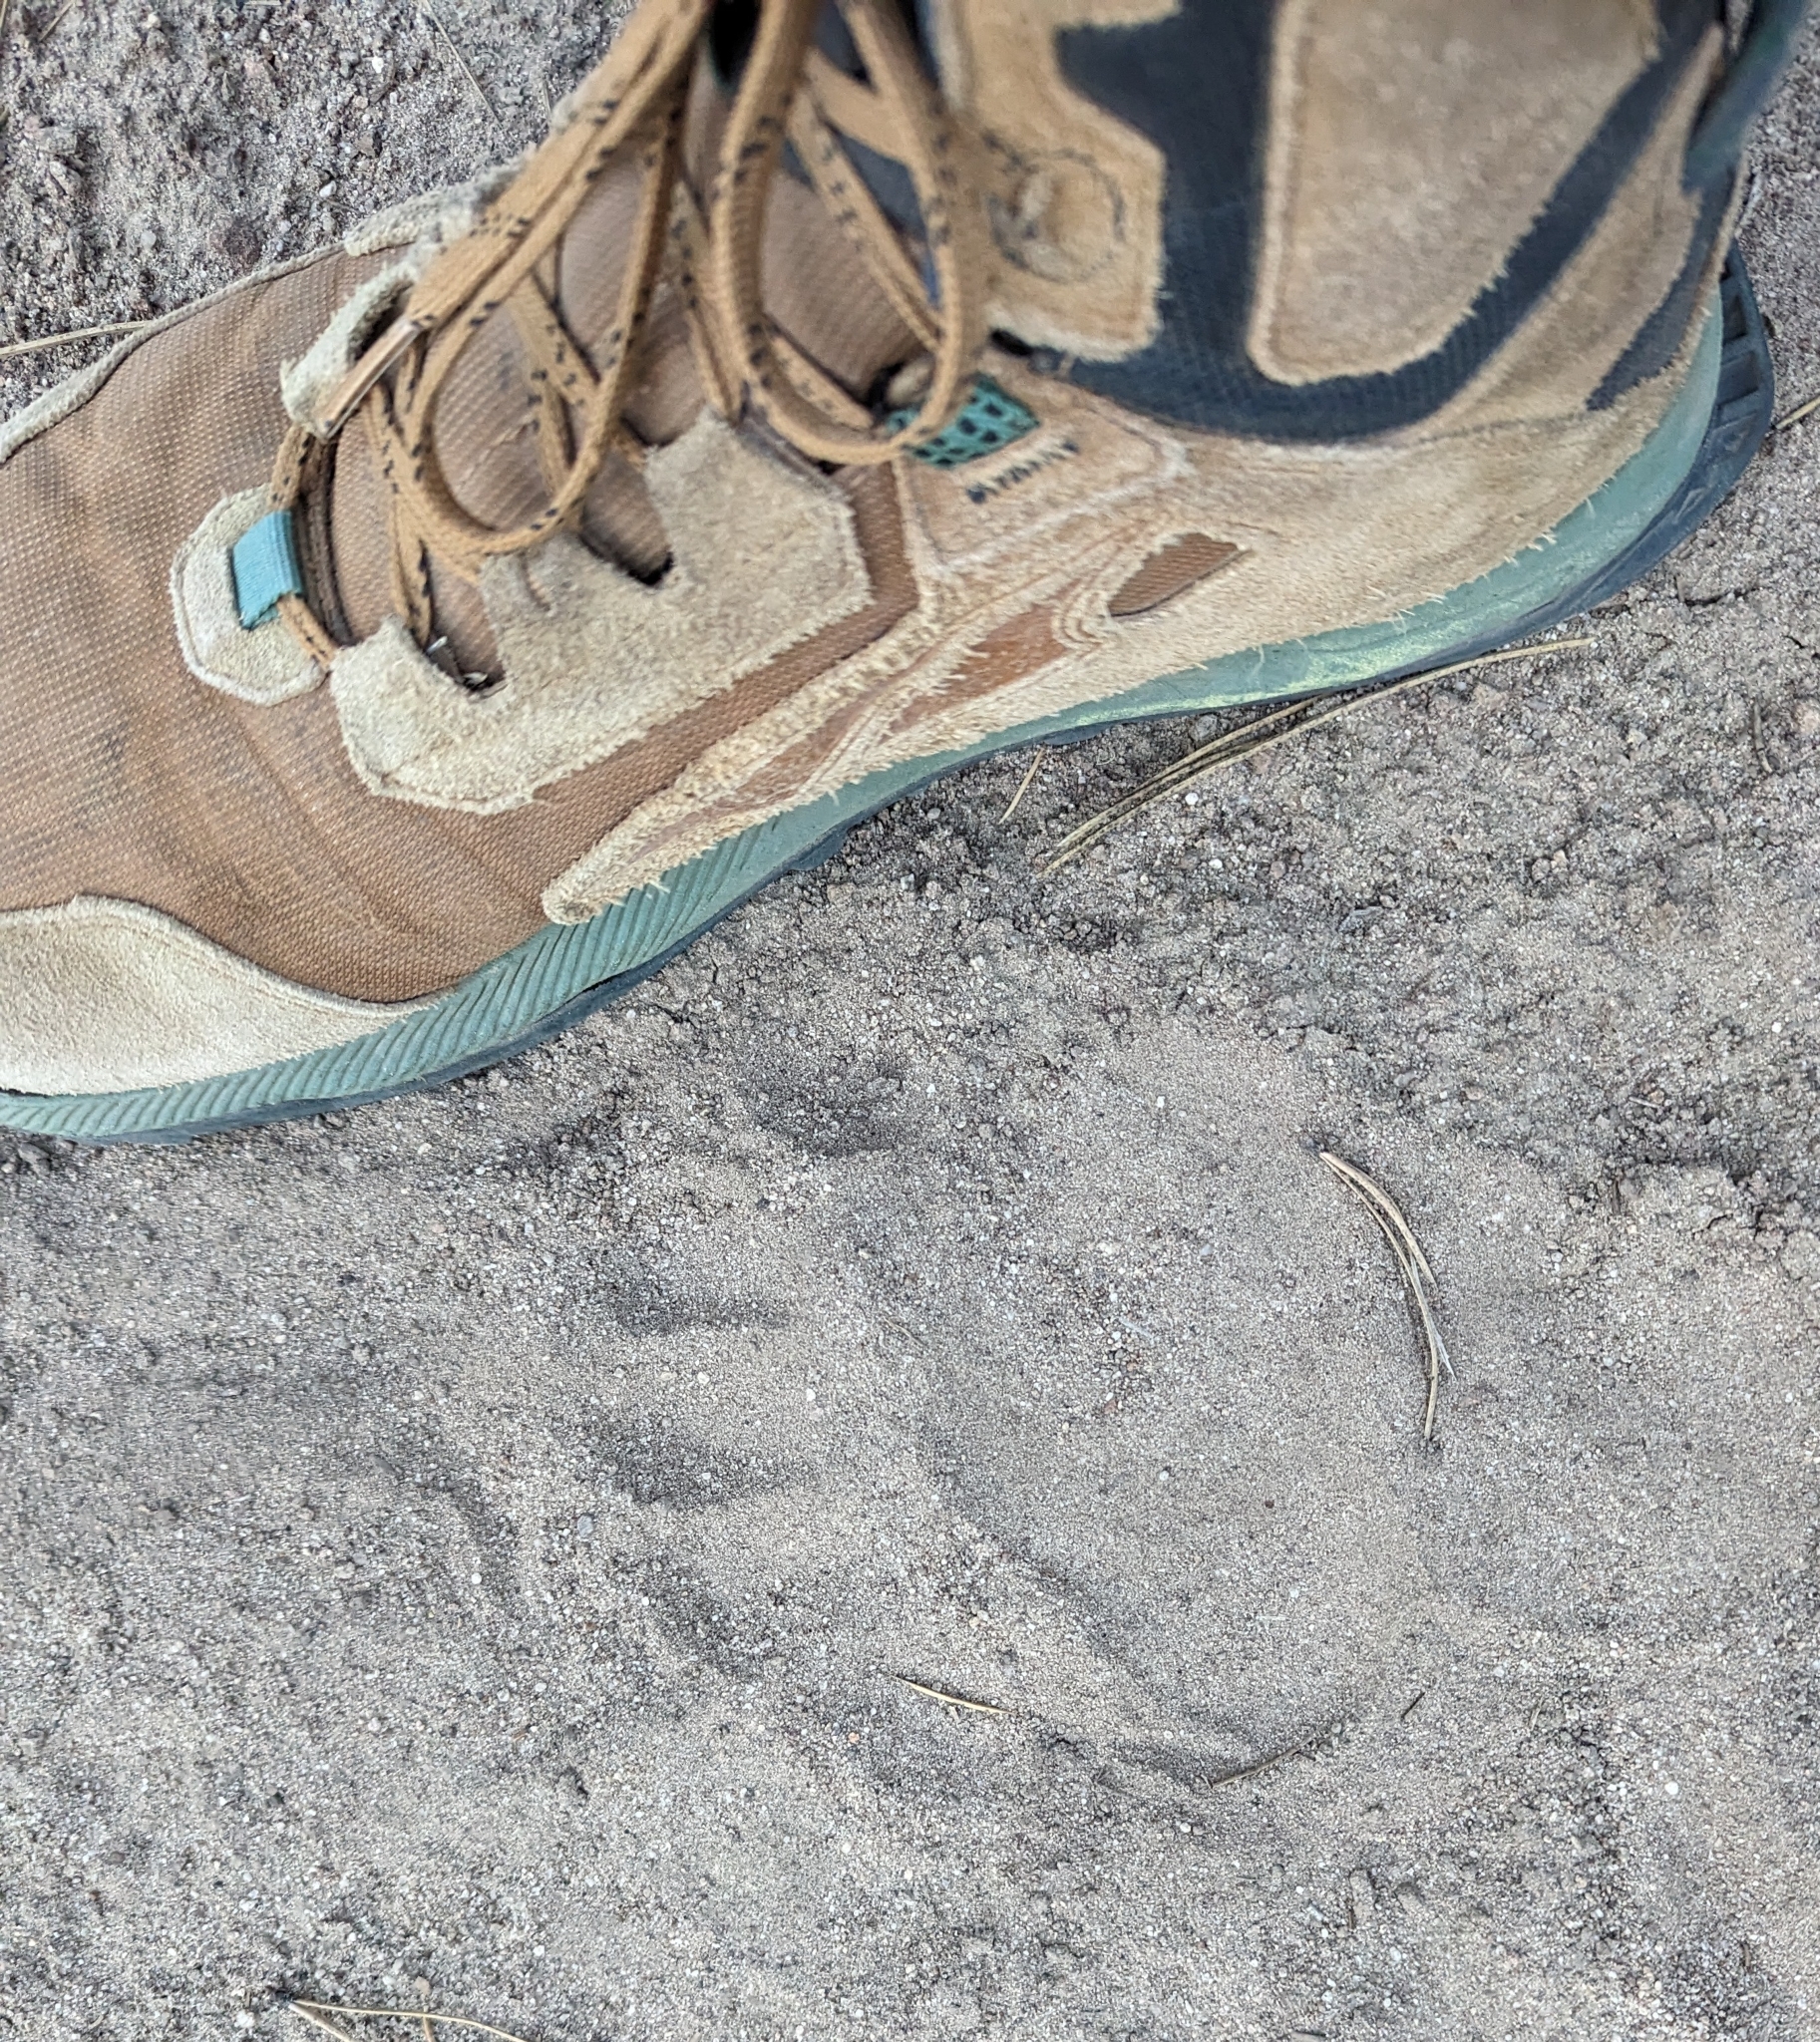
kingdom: Animalia
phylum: Chordata
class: Mammalia
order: Carnivora
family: Ursidae
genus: Ursus
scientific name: Ursus americanus
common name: American black bear
